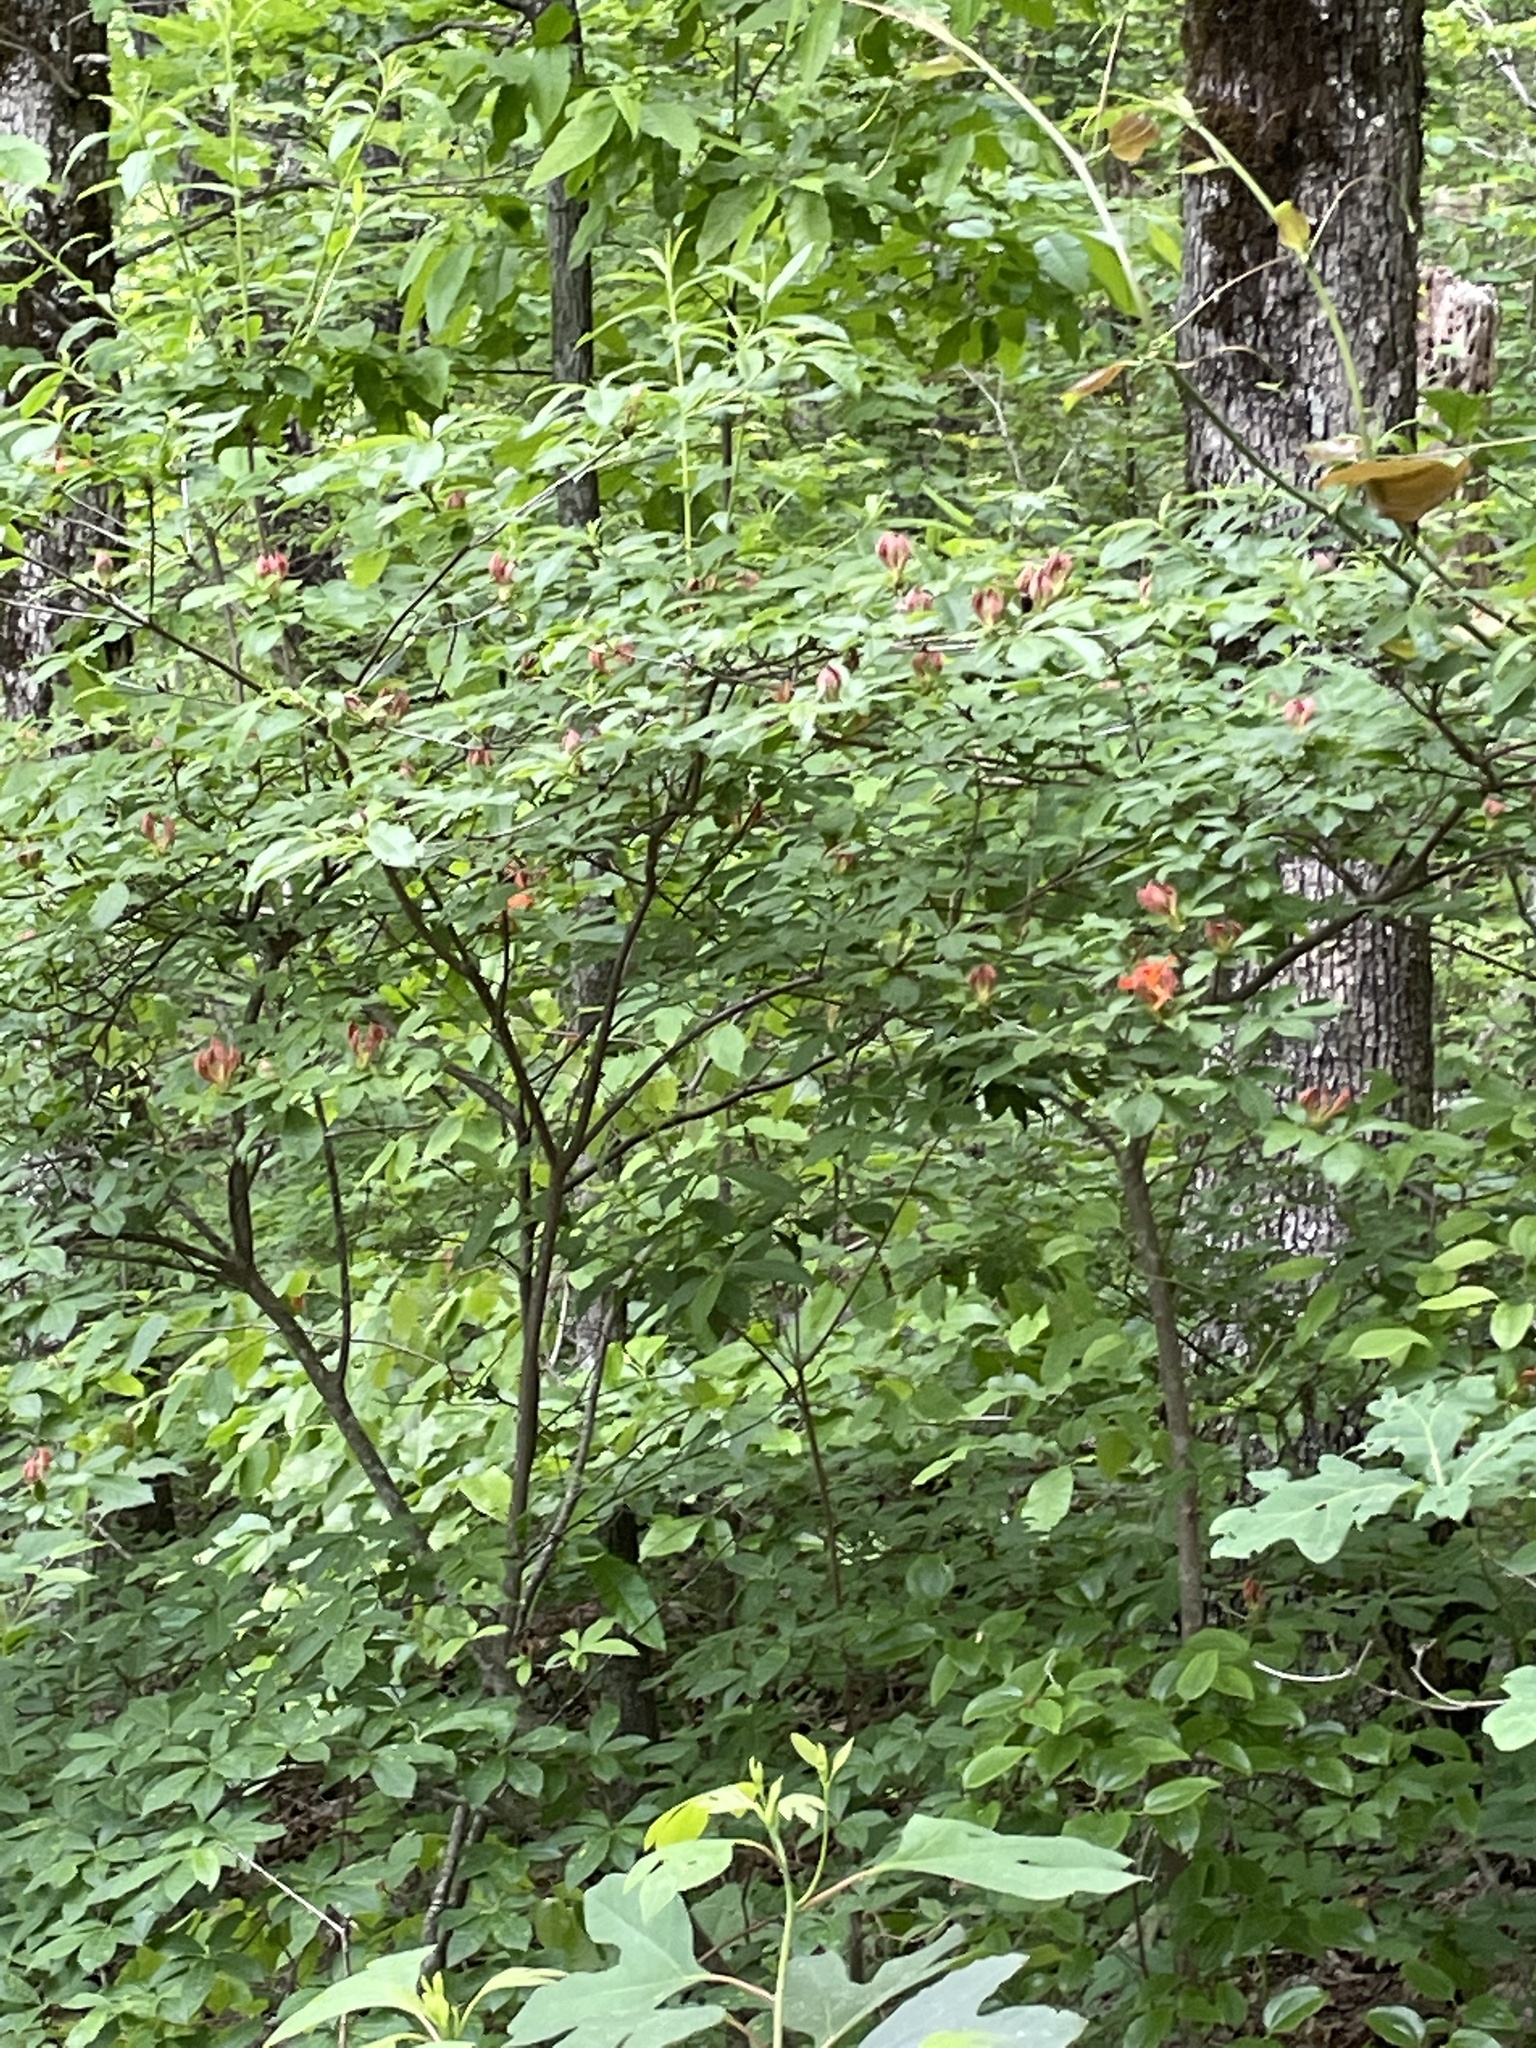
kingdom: Plantae
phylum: Tracheophyta
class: Magnoliopsida
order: Ericales
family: Ericaceae
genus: Rhododendron
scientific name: Rhododendron calendulaceum
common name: Flame azalea
